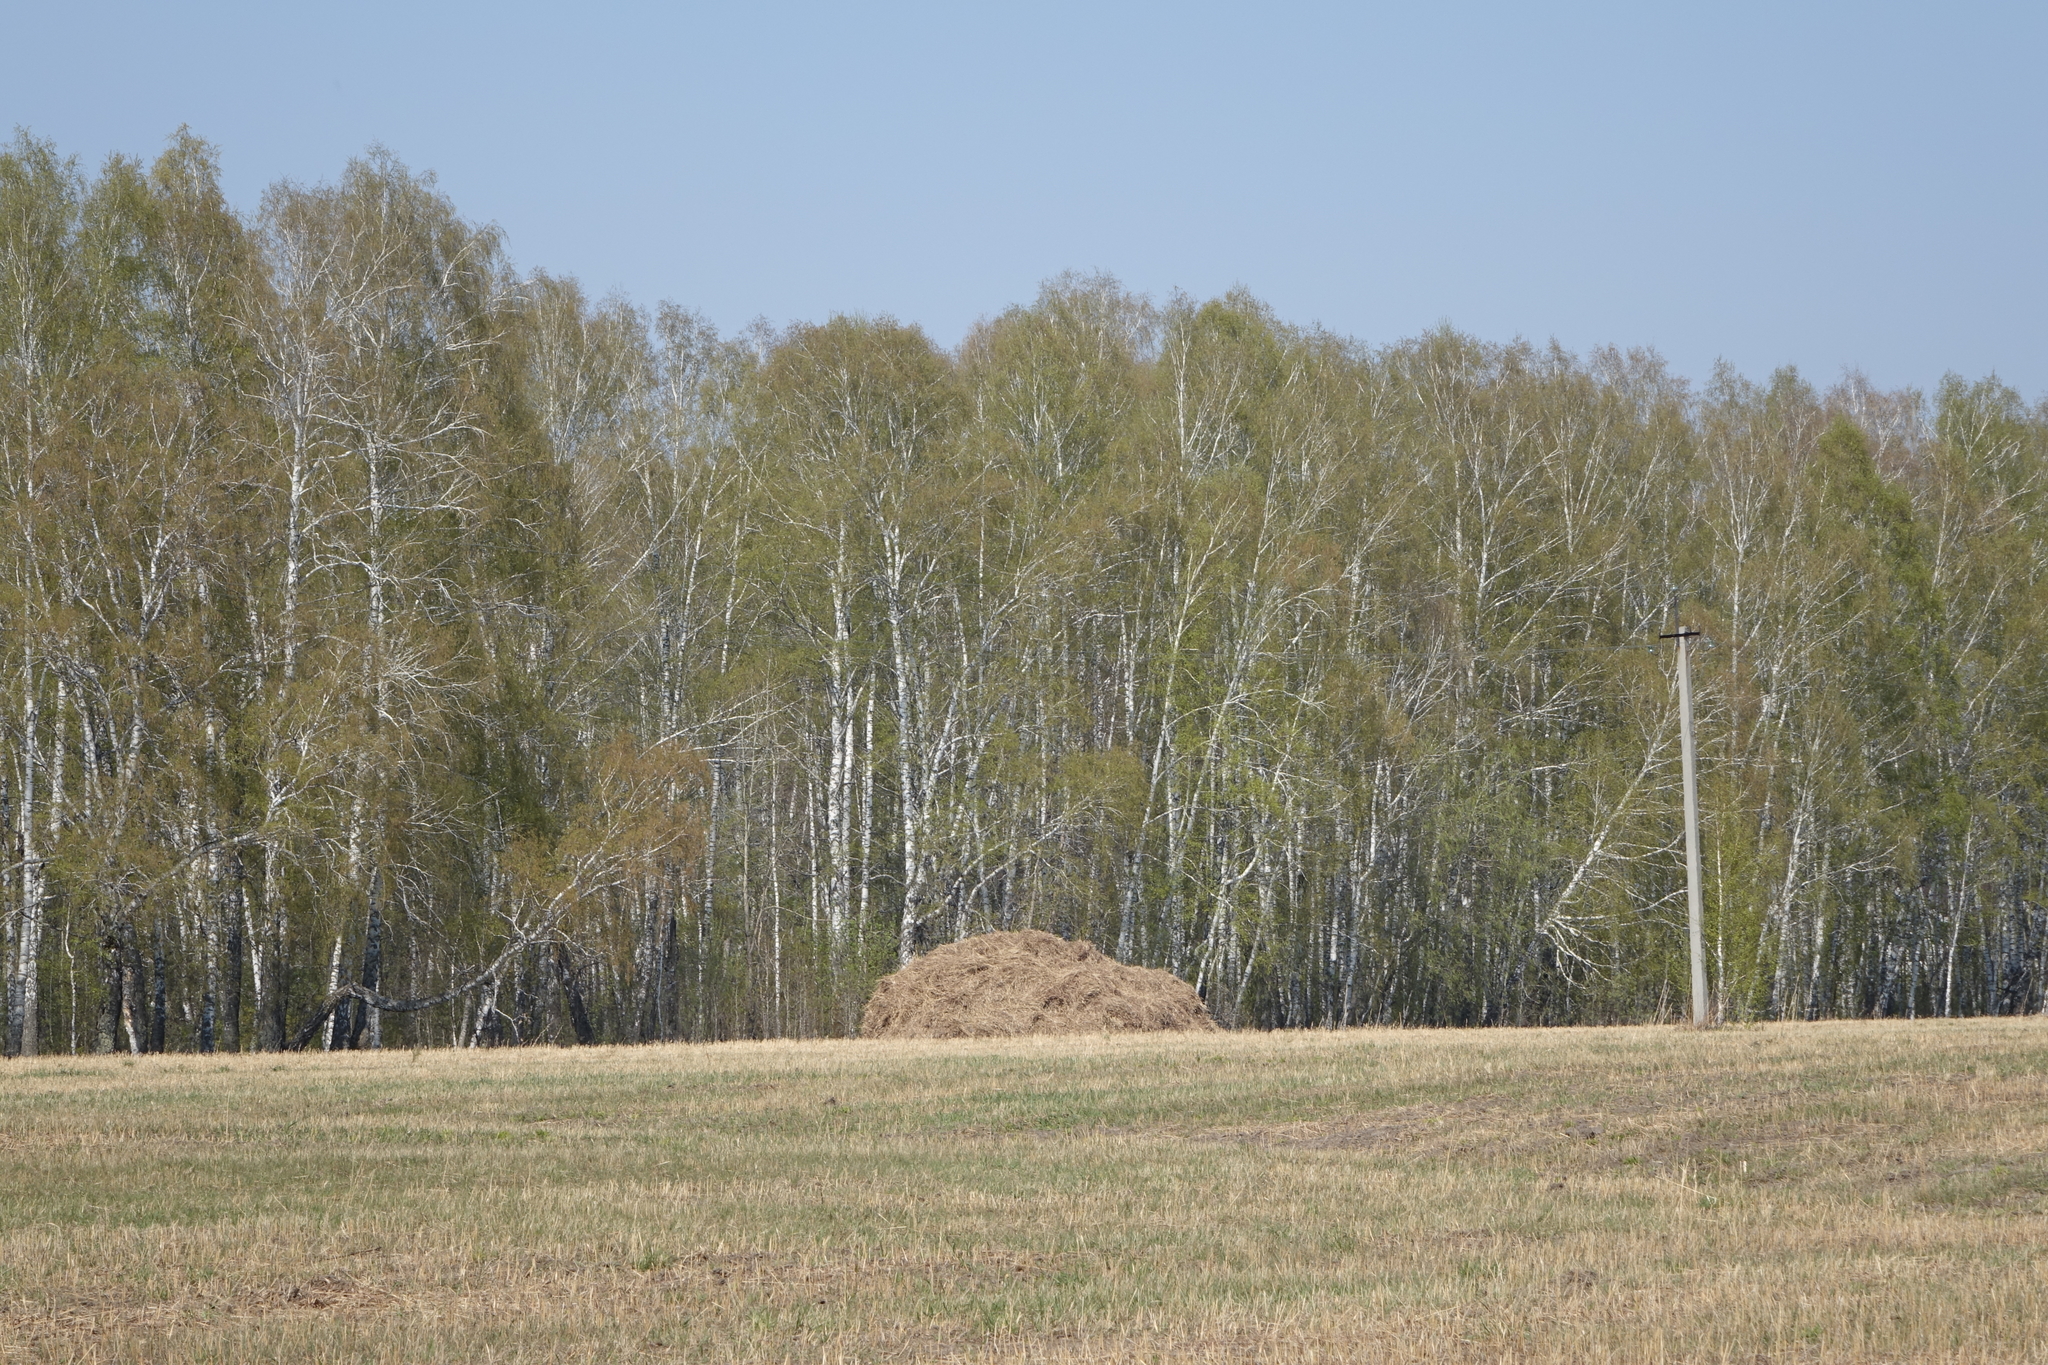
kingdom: Plantae
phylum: Tracheophyta
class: Magnoliopsida
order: Fagales
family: Betulaceae
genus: Betula
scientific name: Betula pendula
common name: Silver birch
